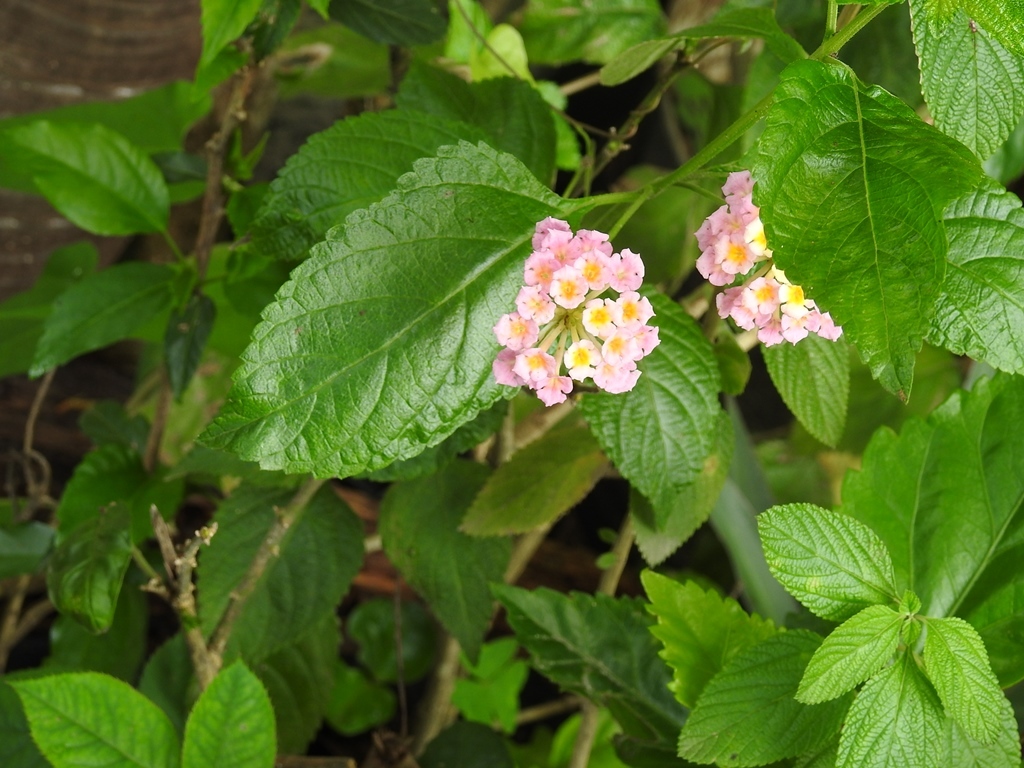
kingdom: Plantae
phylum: Tracheophyta
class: Magnoliopsida
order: Lamiales
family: Verbenaceae
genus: Lantana
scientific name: Lantana camara
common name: Lantana
